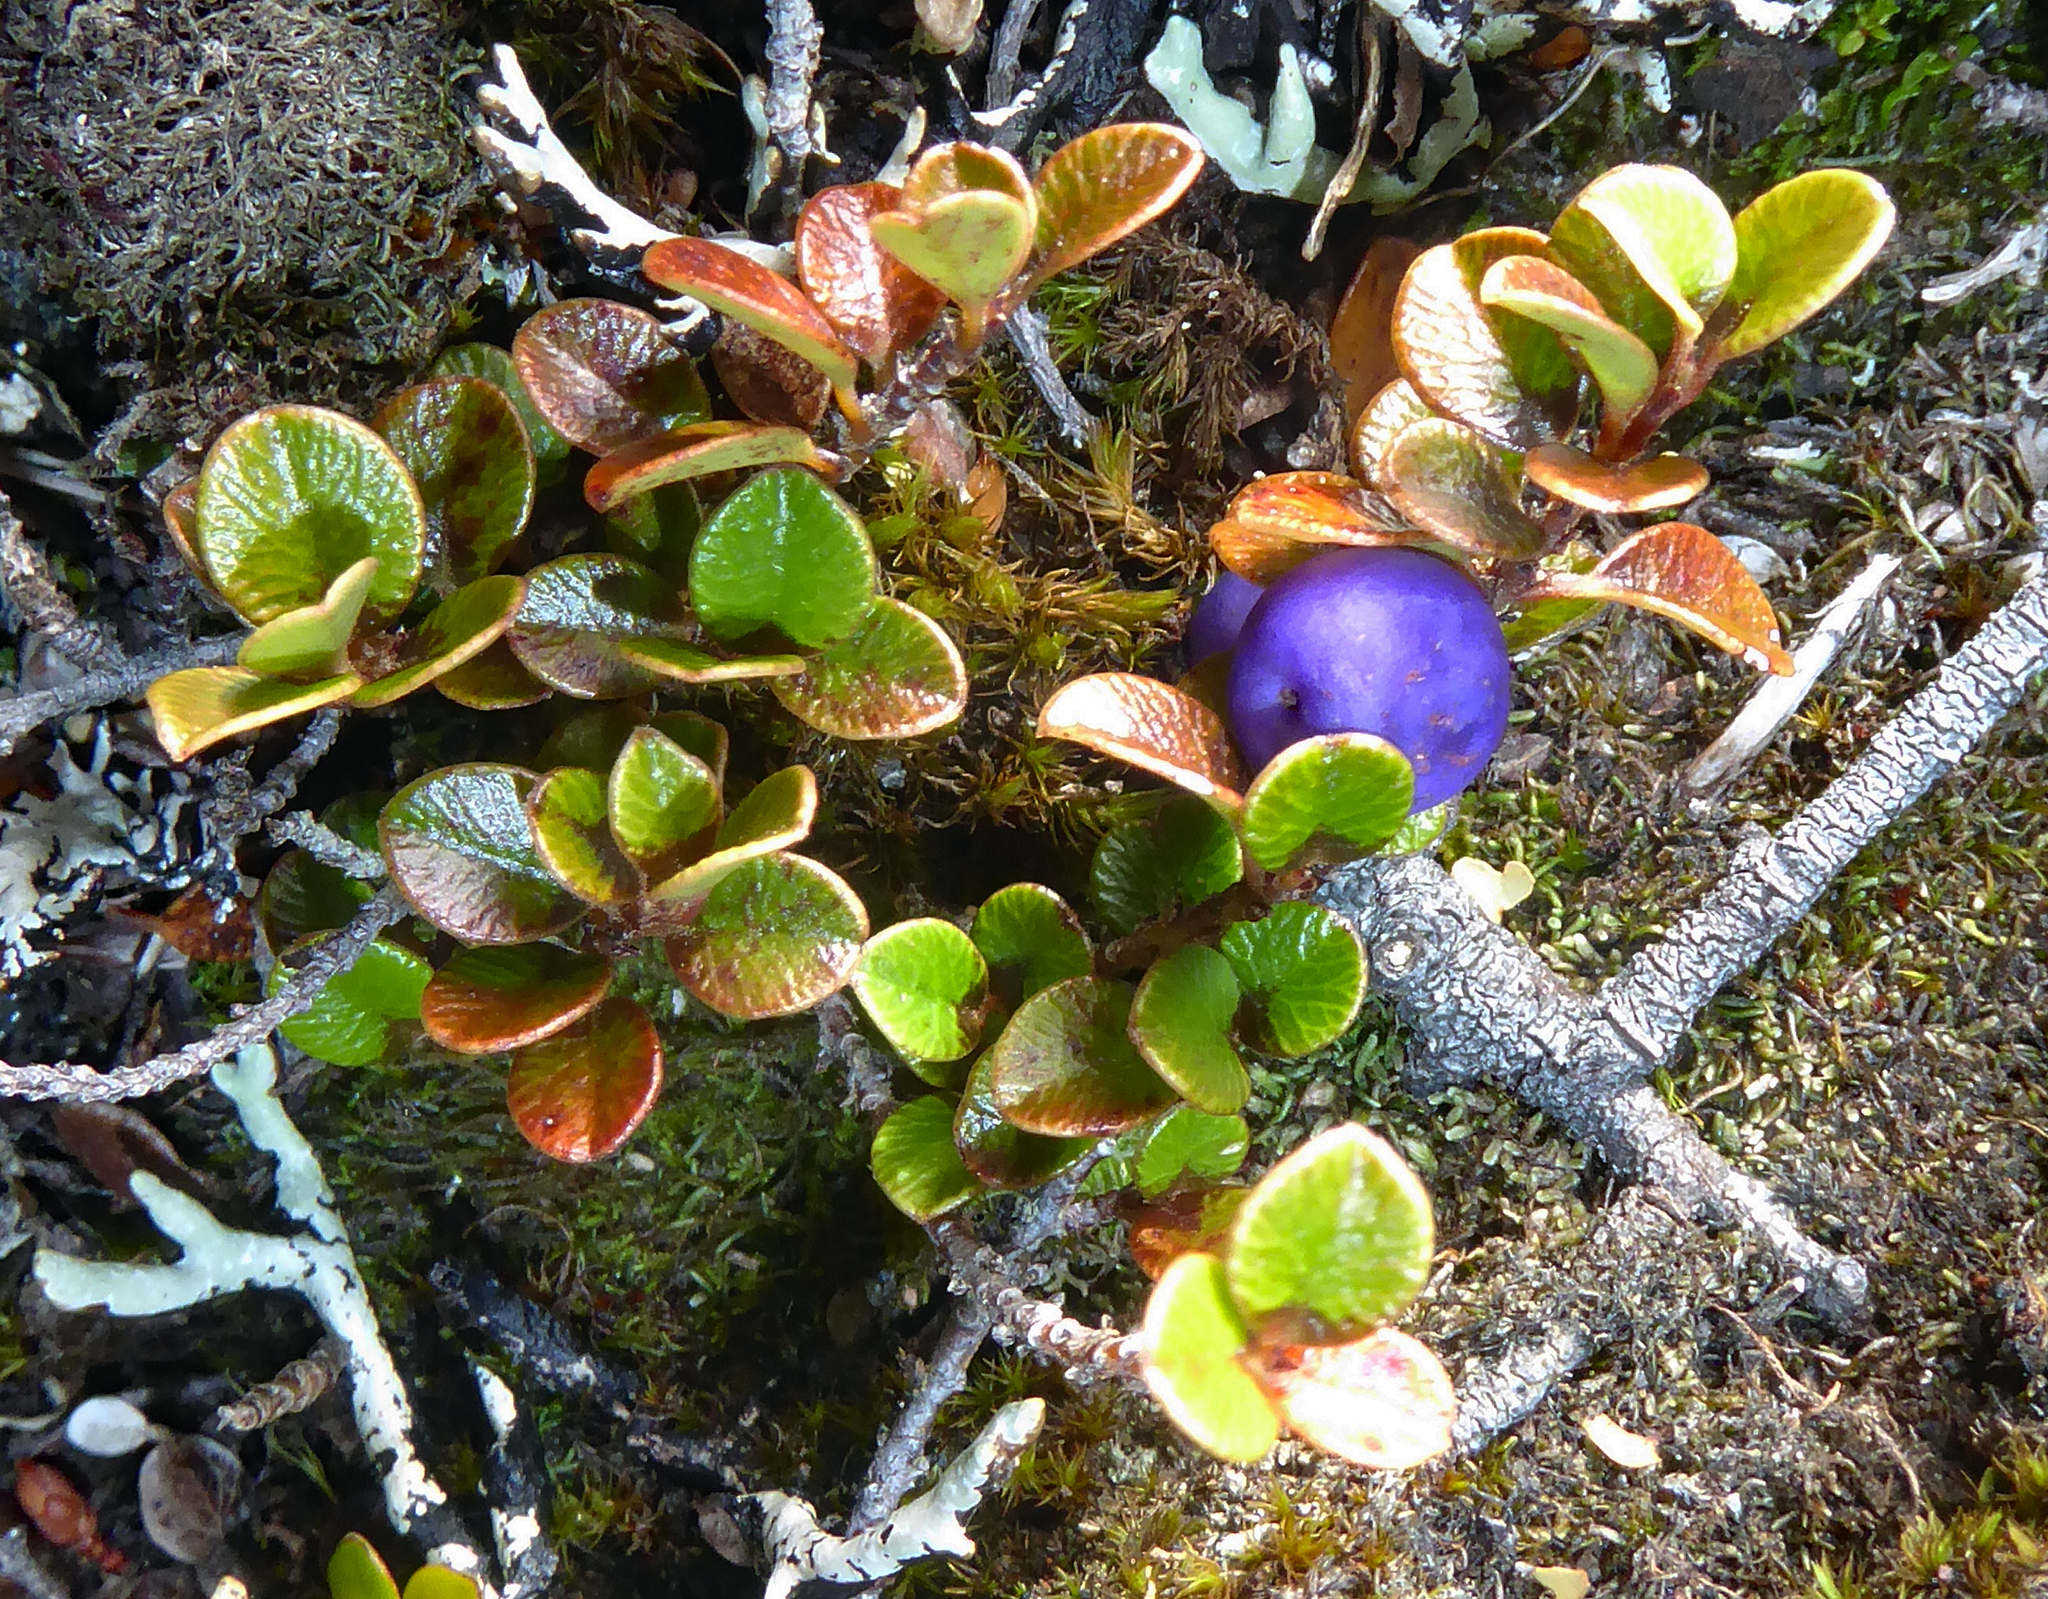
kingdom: Plantae
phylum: Tracheophyta
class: Magnoliopsida
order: Ericales
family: Primulaceae
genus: Myrsine
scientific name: Myrsine nummularia
